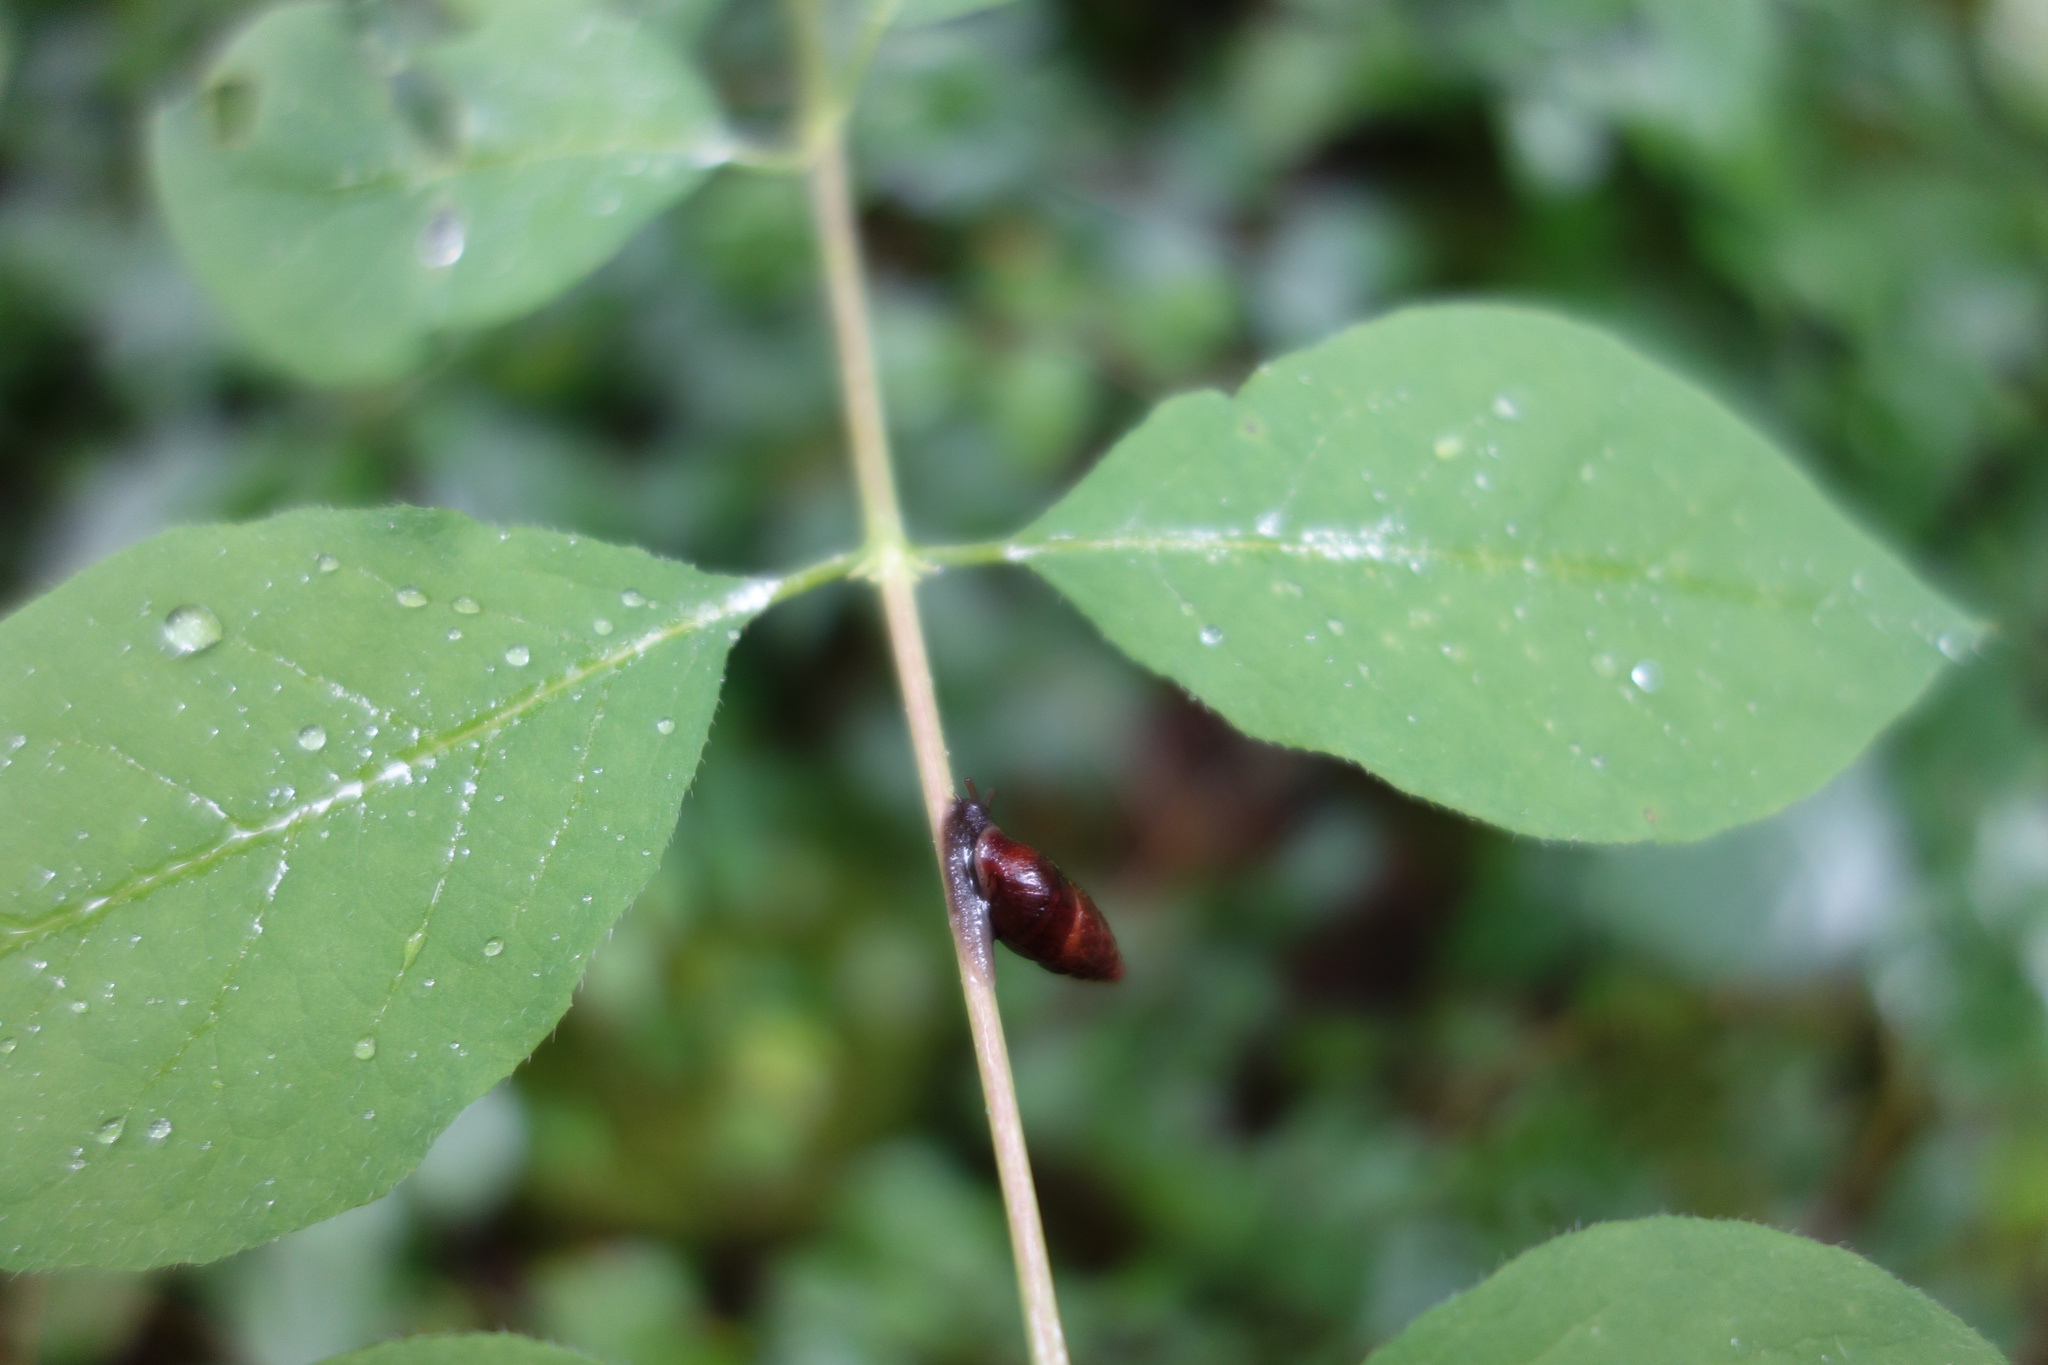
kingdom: Animalia
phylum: Mollusca
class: Gastropoda
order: Stylommatophora
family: Enidae
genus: Ena
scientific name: Ena montana
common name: Mountain bulin
